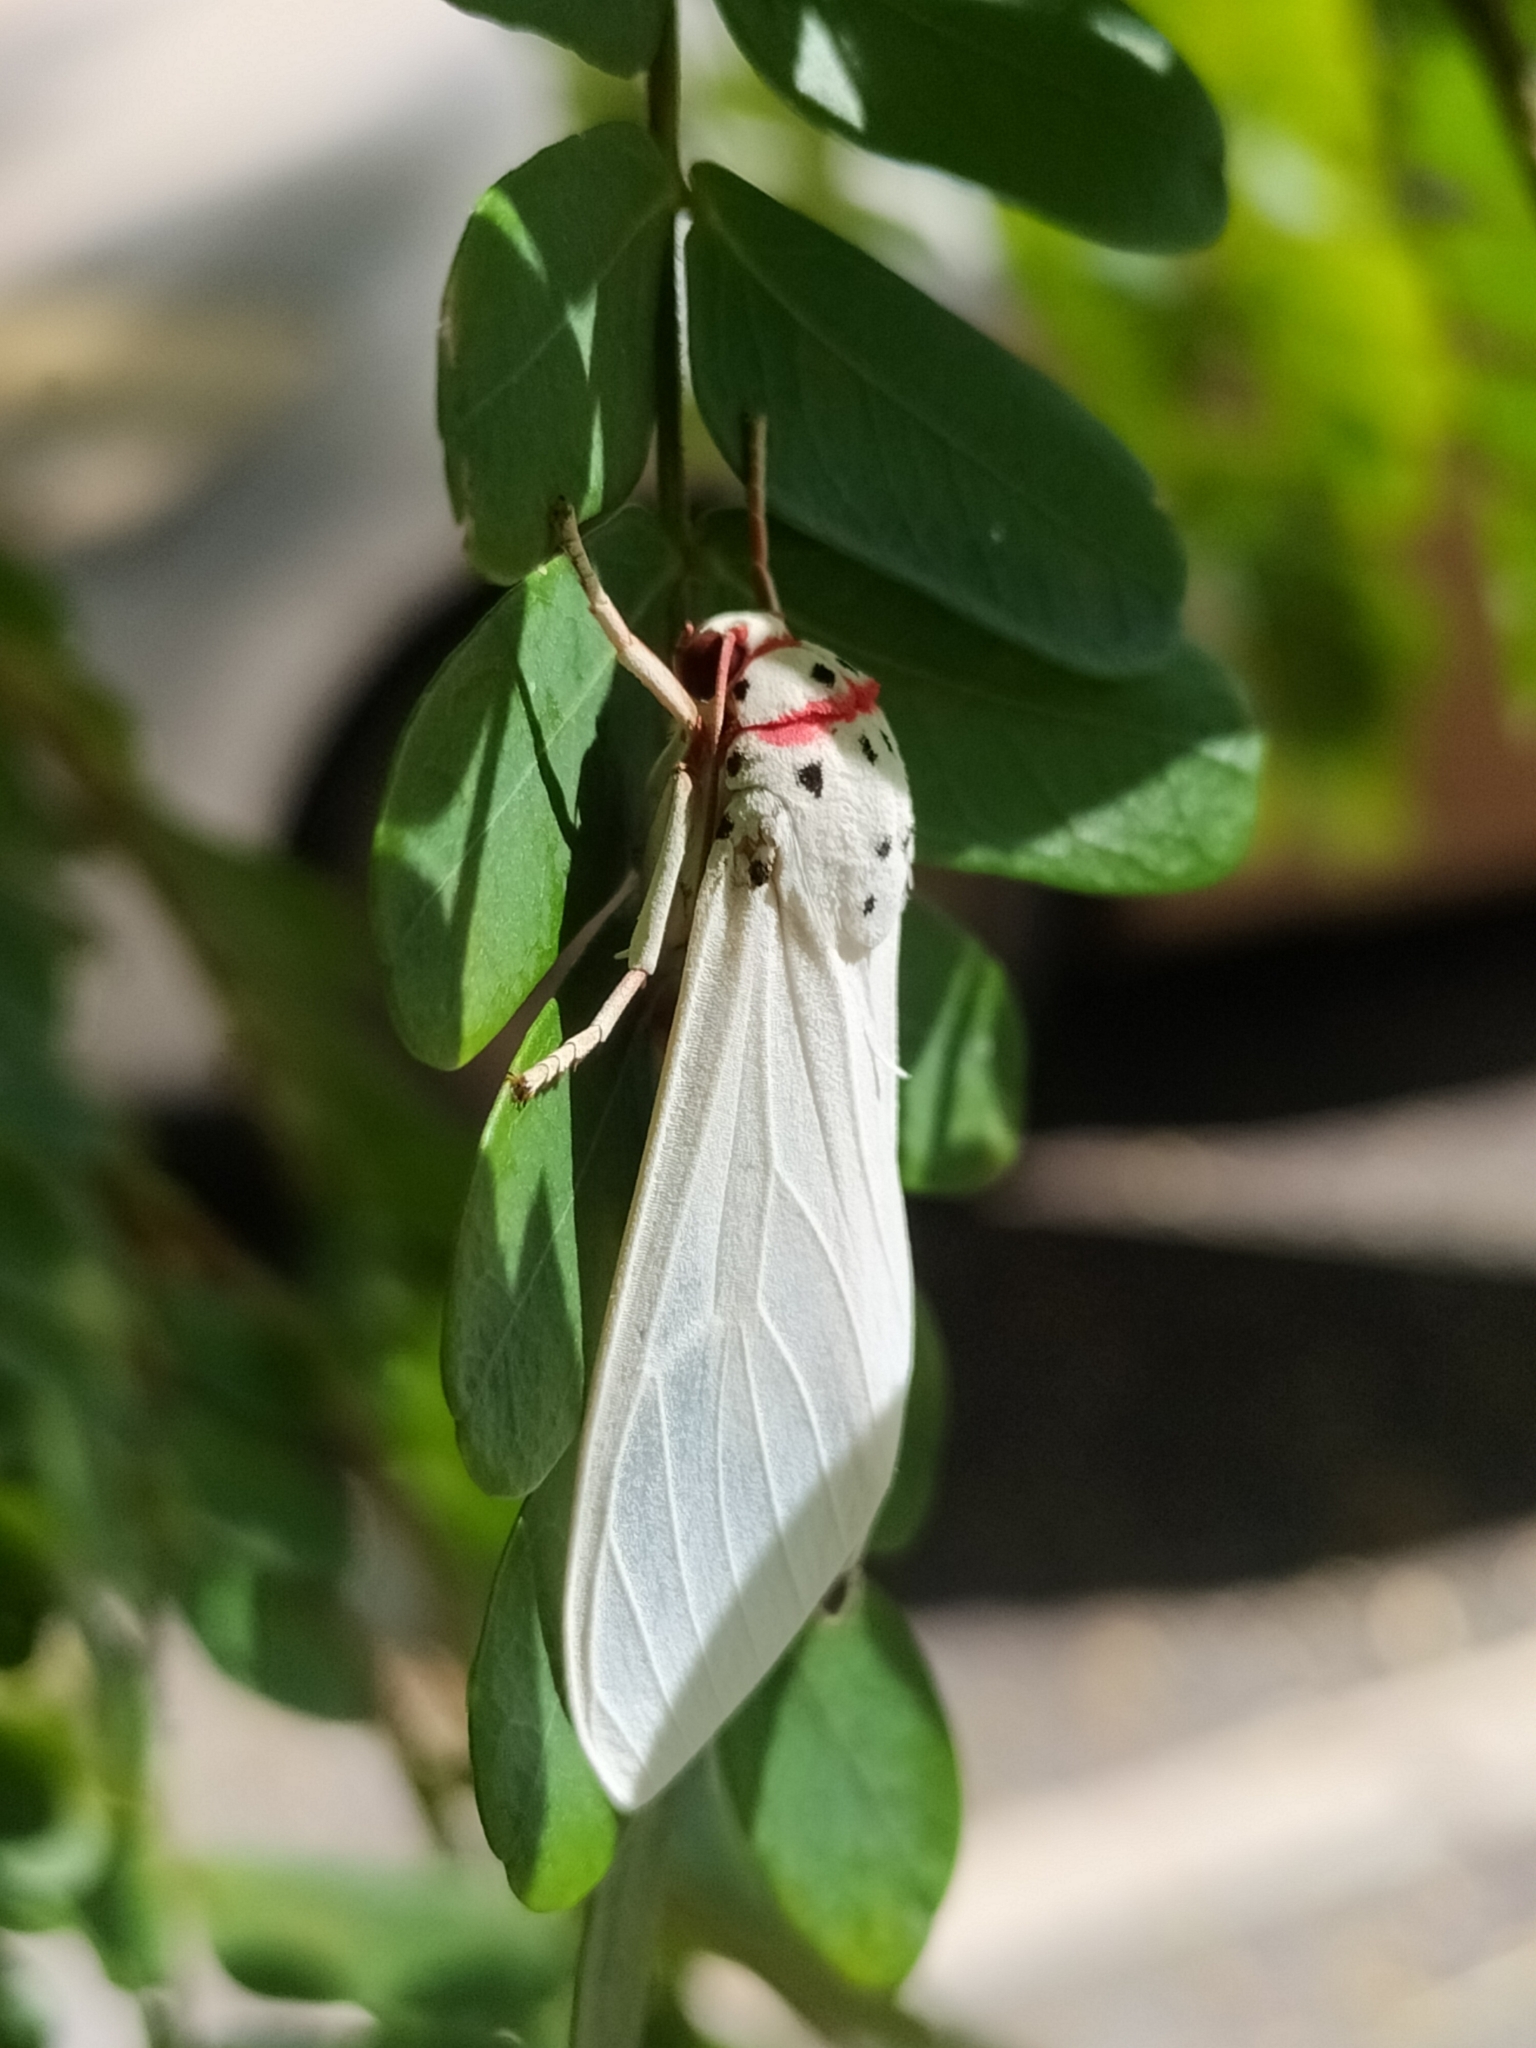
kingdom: Animalia
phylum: Arthropoda
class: Insecta
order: Lepidoptera
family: Erebidae
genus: Amerila
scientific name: Amerila rubripes
